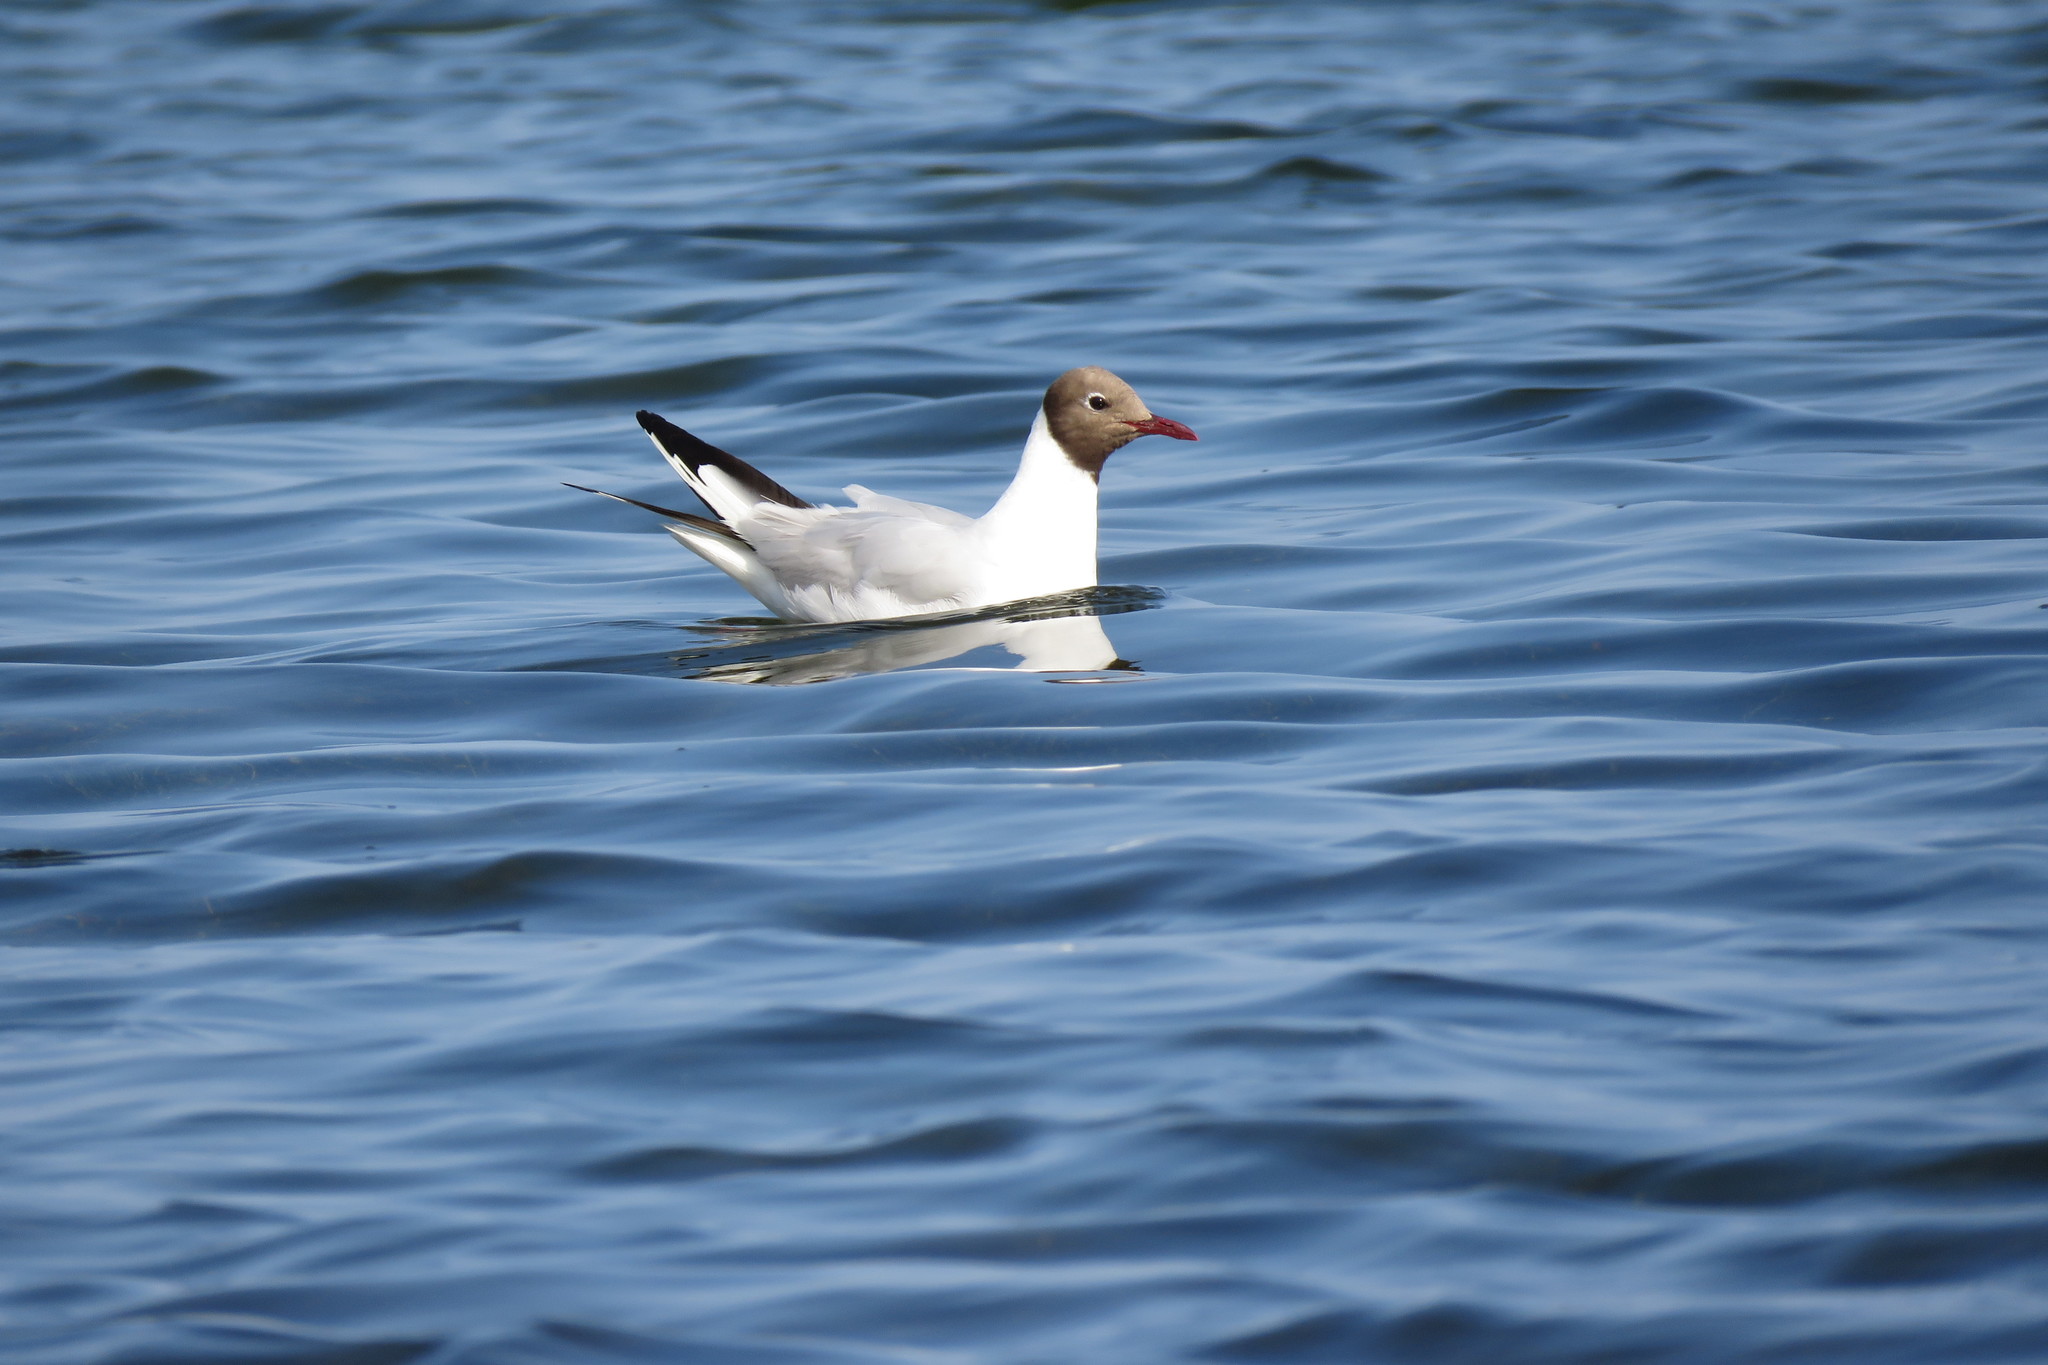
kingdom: Animalia
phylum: Chordata
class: Aves
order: Charadriiformes
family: Laridae
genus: Chroicocephalus
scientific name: Chroicocephalus ridibundus
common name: Black-headed gull
